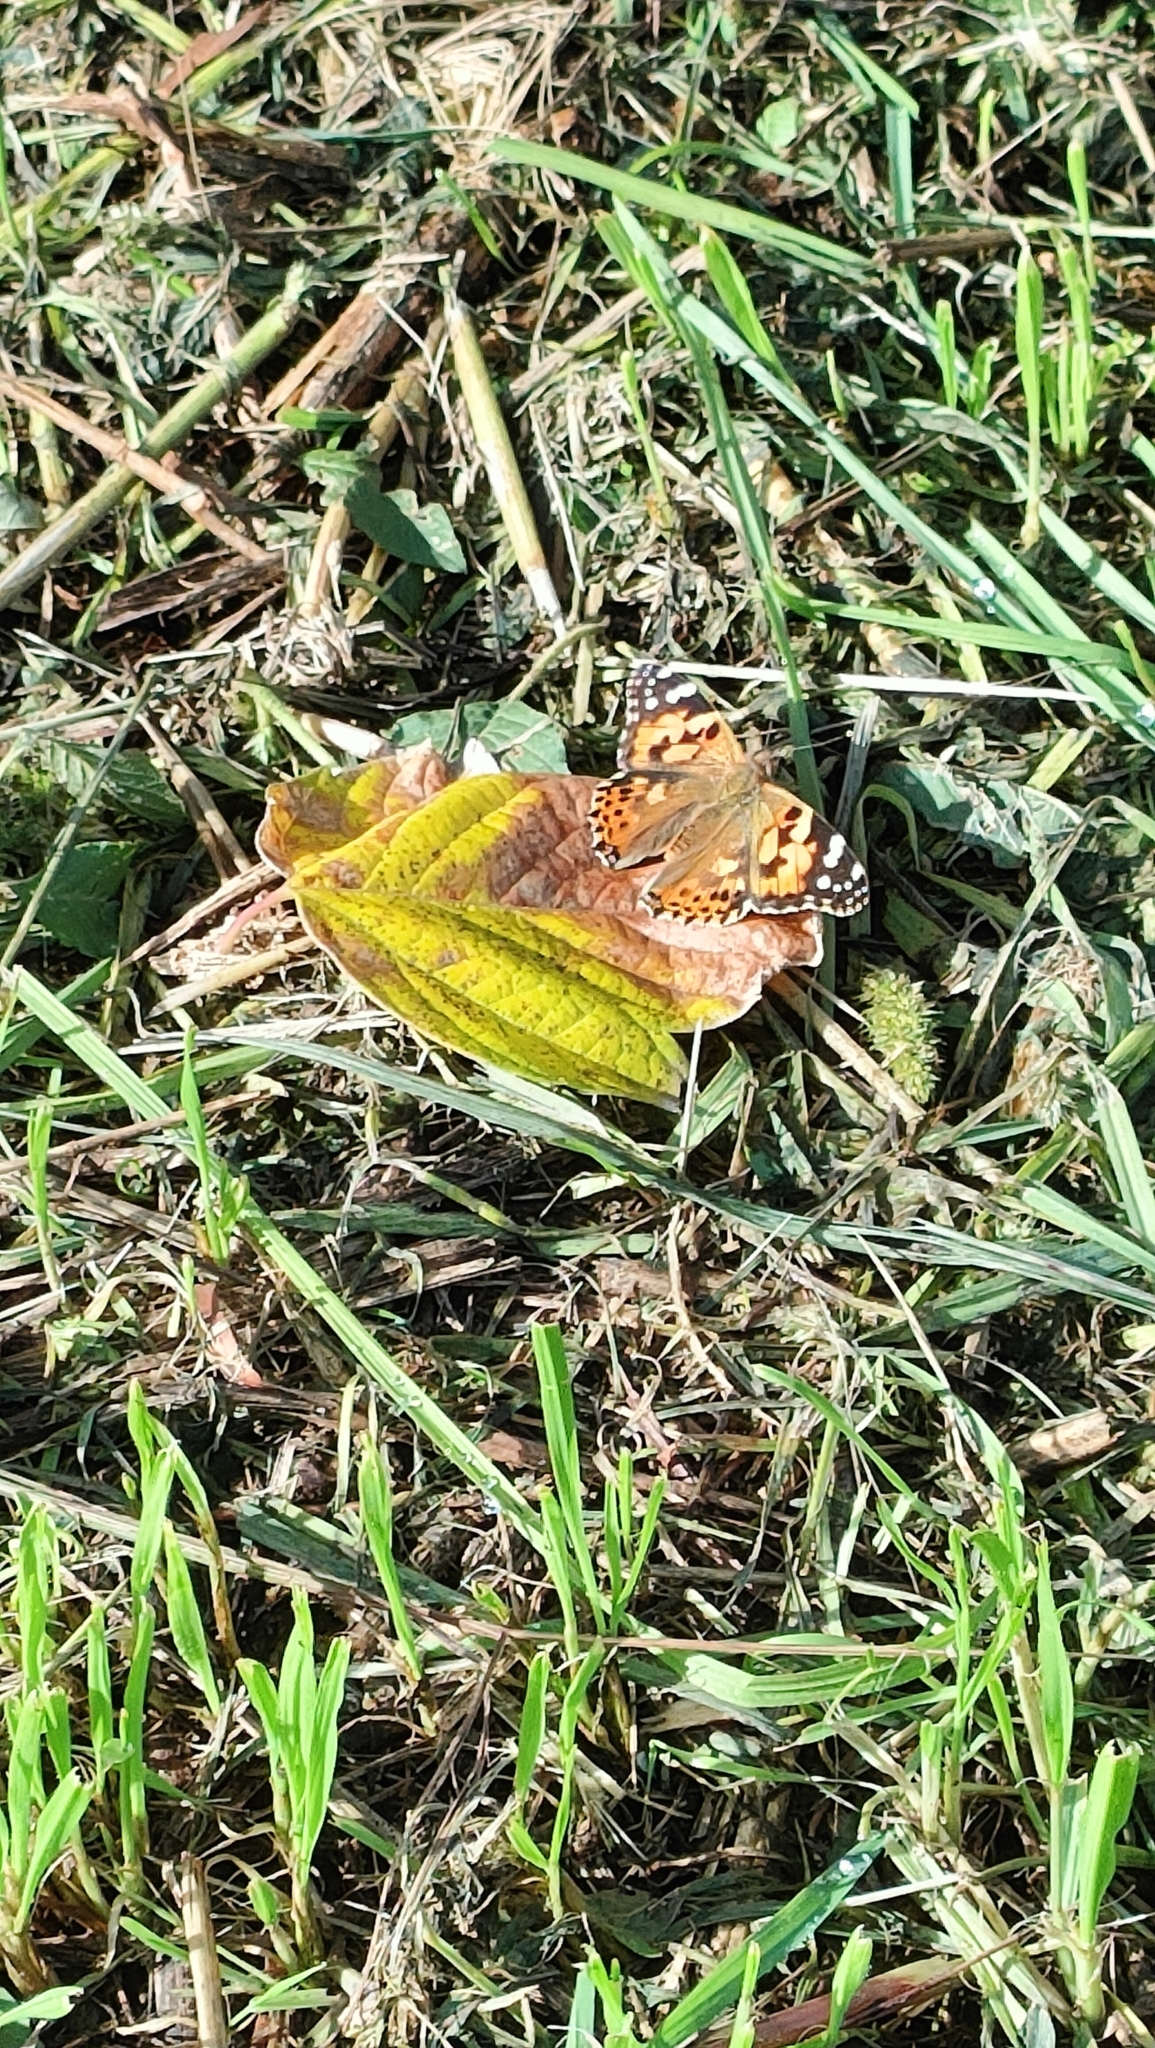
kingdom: Animalia
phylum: Arthropoda
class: Insecta
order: Lepidoptera
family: Nymphalidae
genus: Vanessa
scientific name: Vanessa cardui
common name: Painted lady
